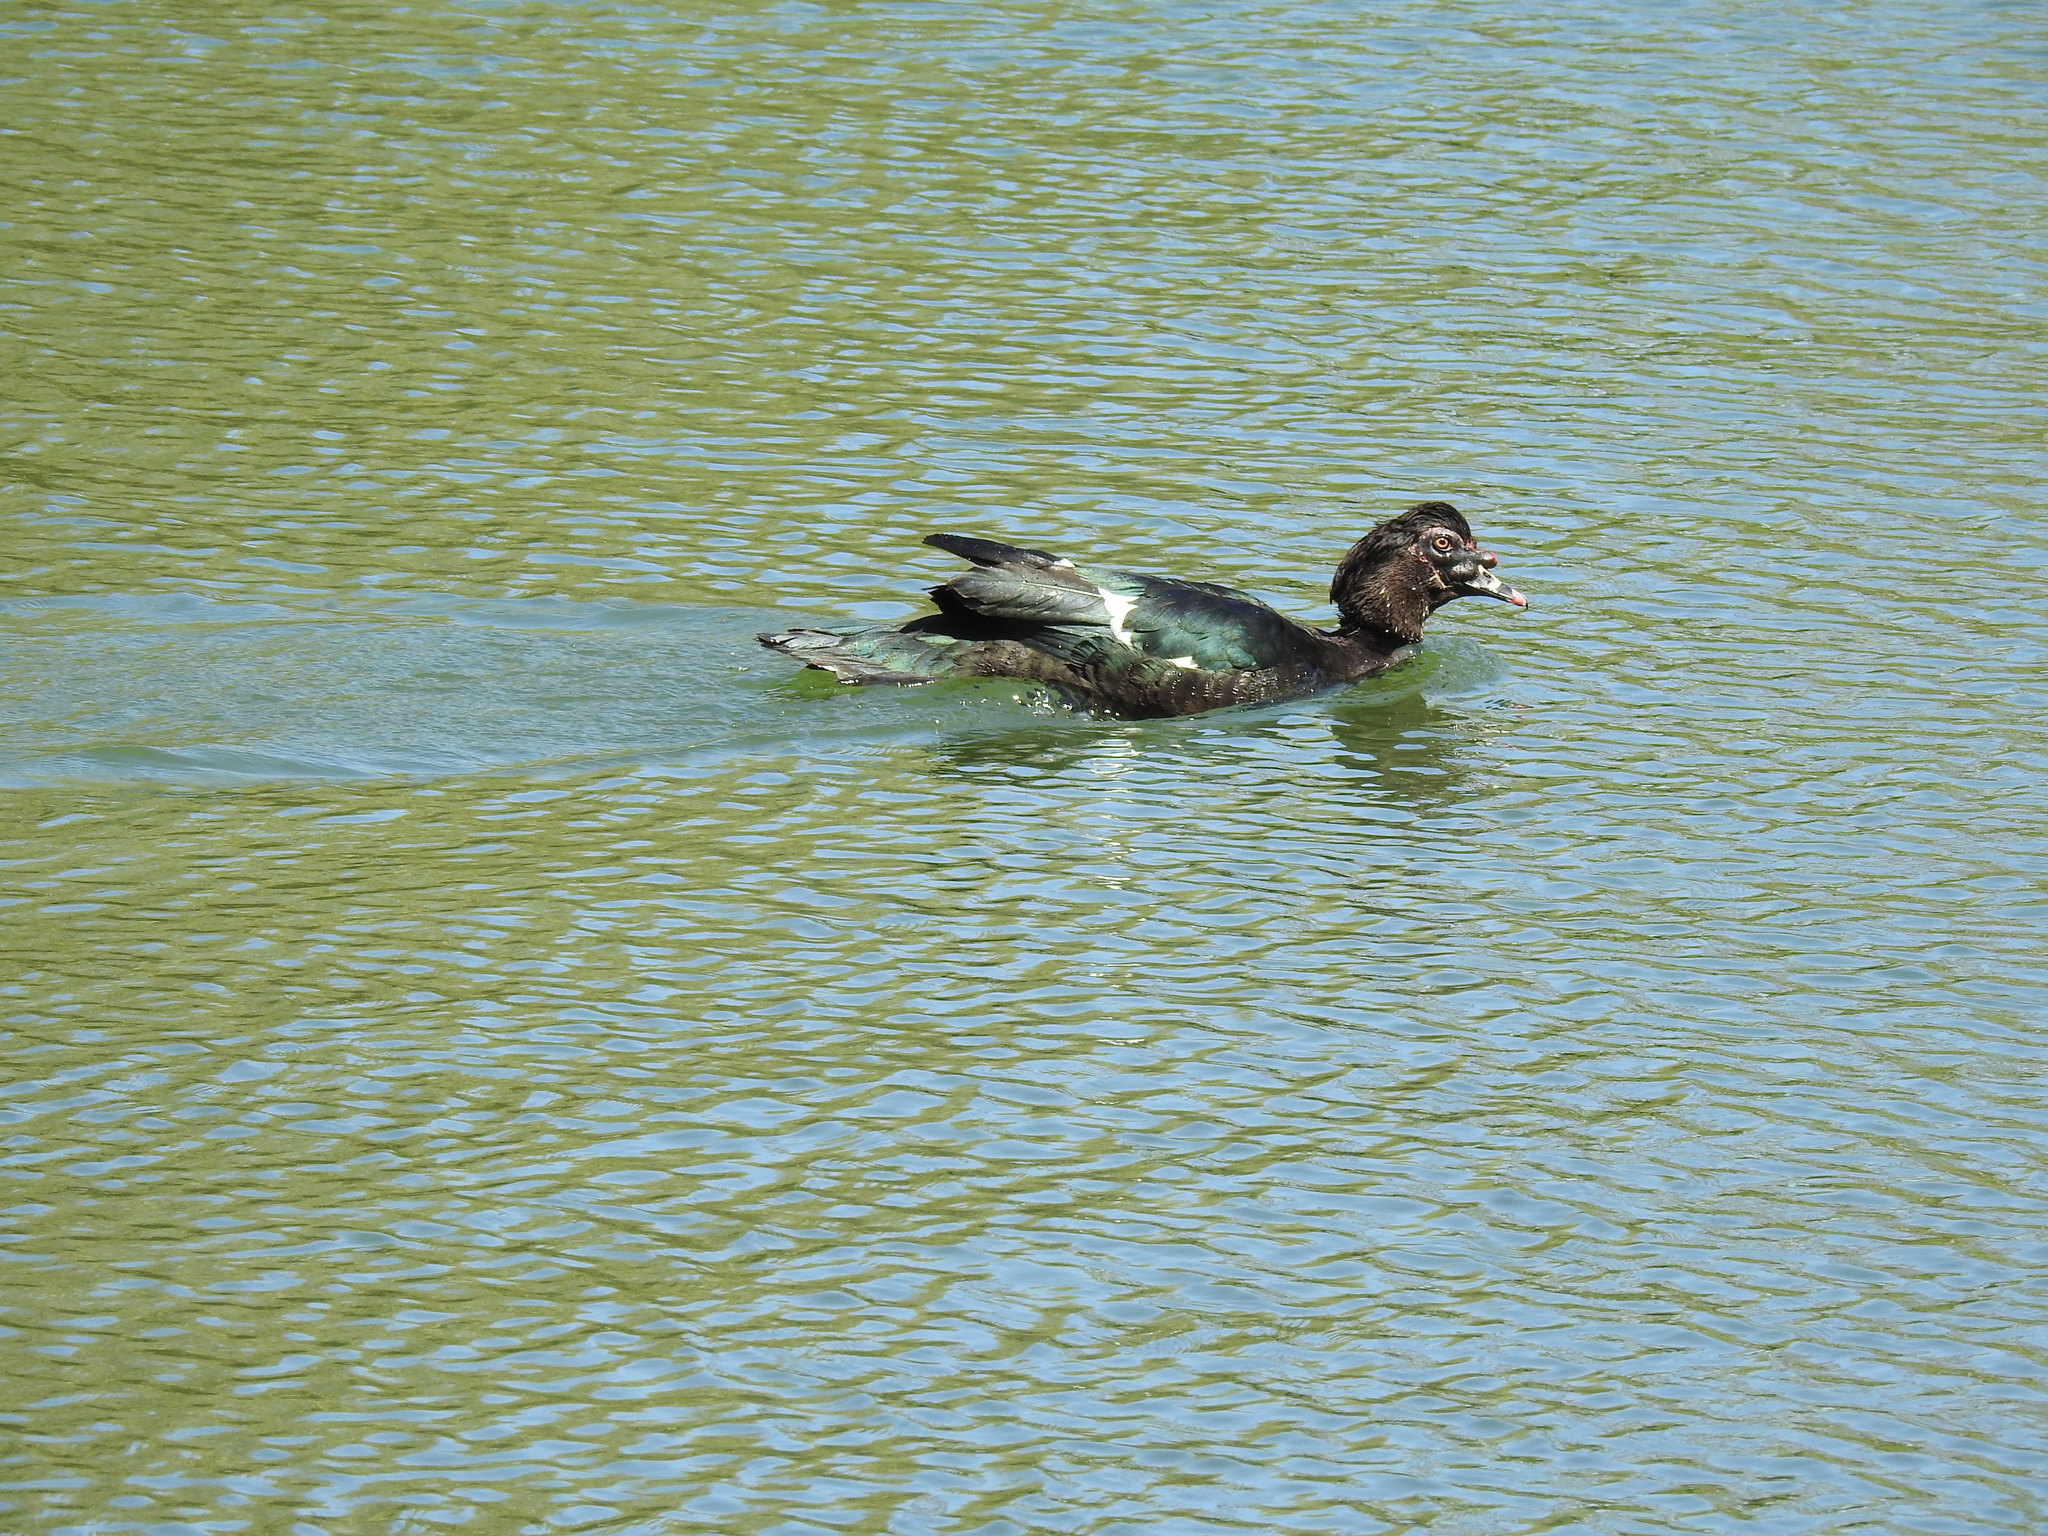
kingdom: Animalia
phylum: Chordata
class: Aves
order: Anseriformes
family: Anatidae
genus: Cairina
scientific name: Cairina moschata
